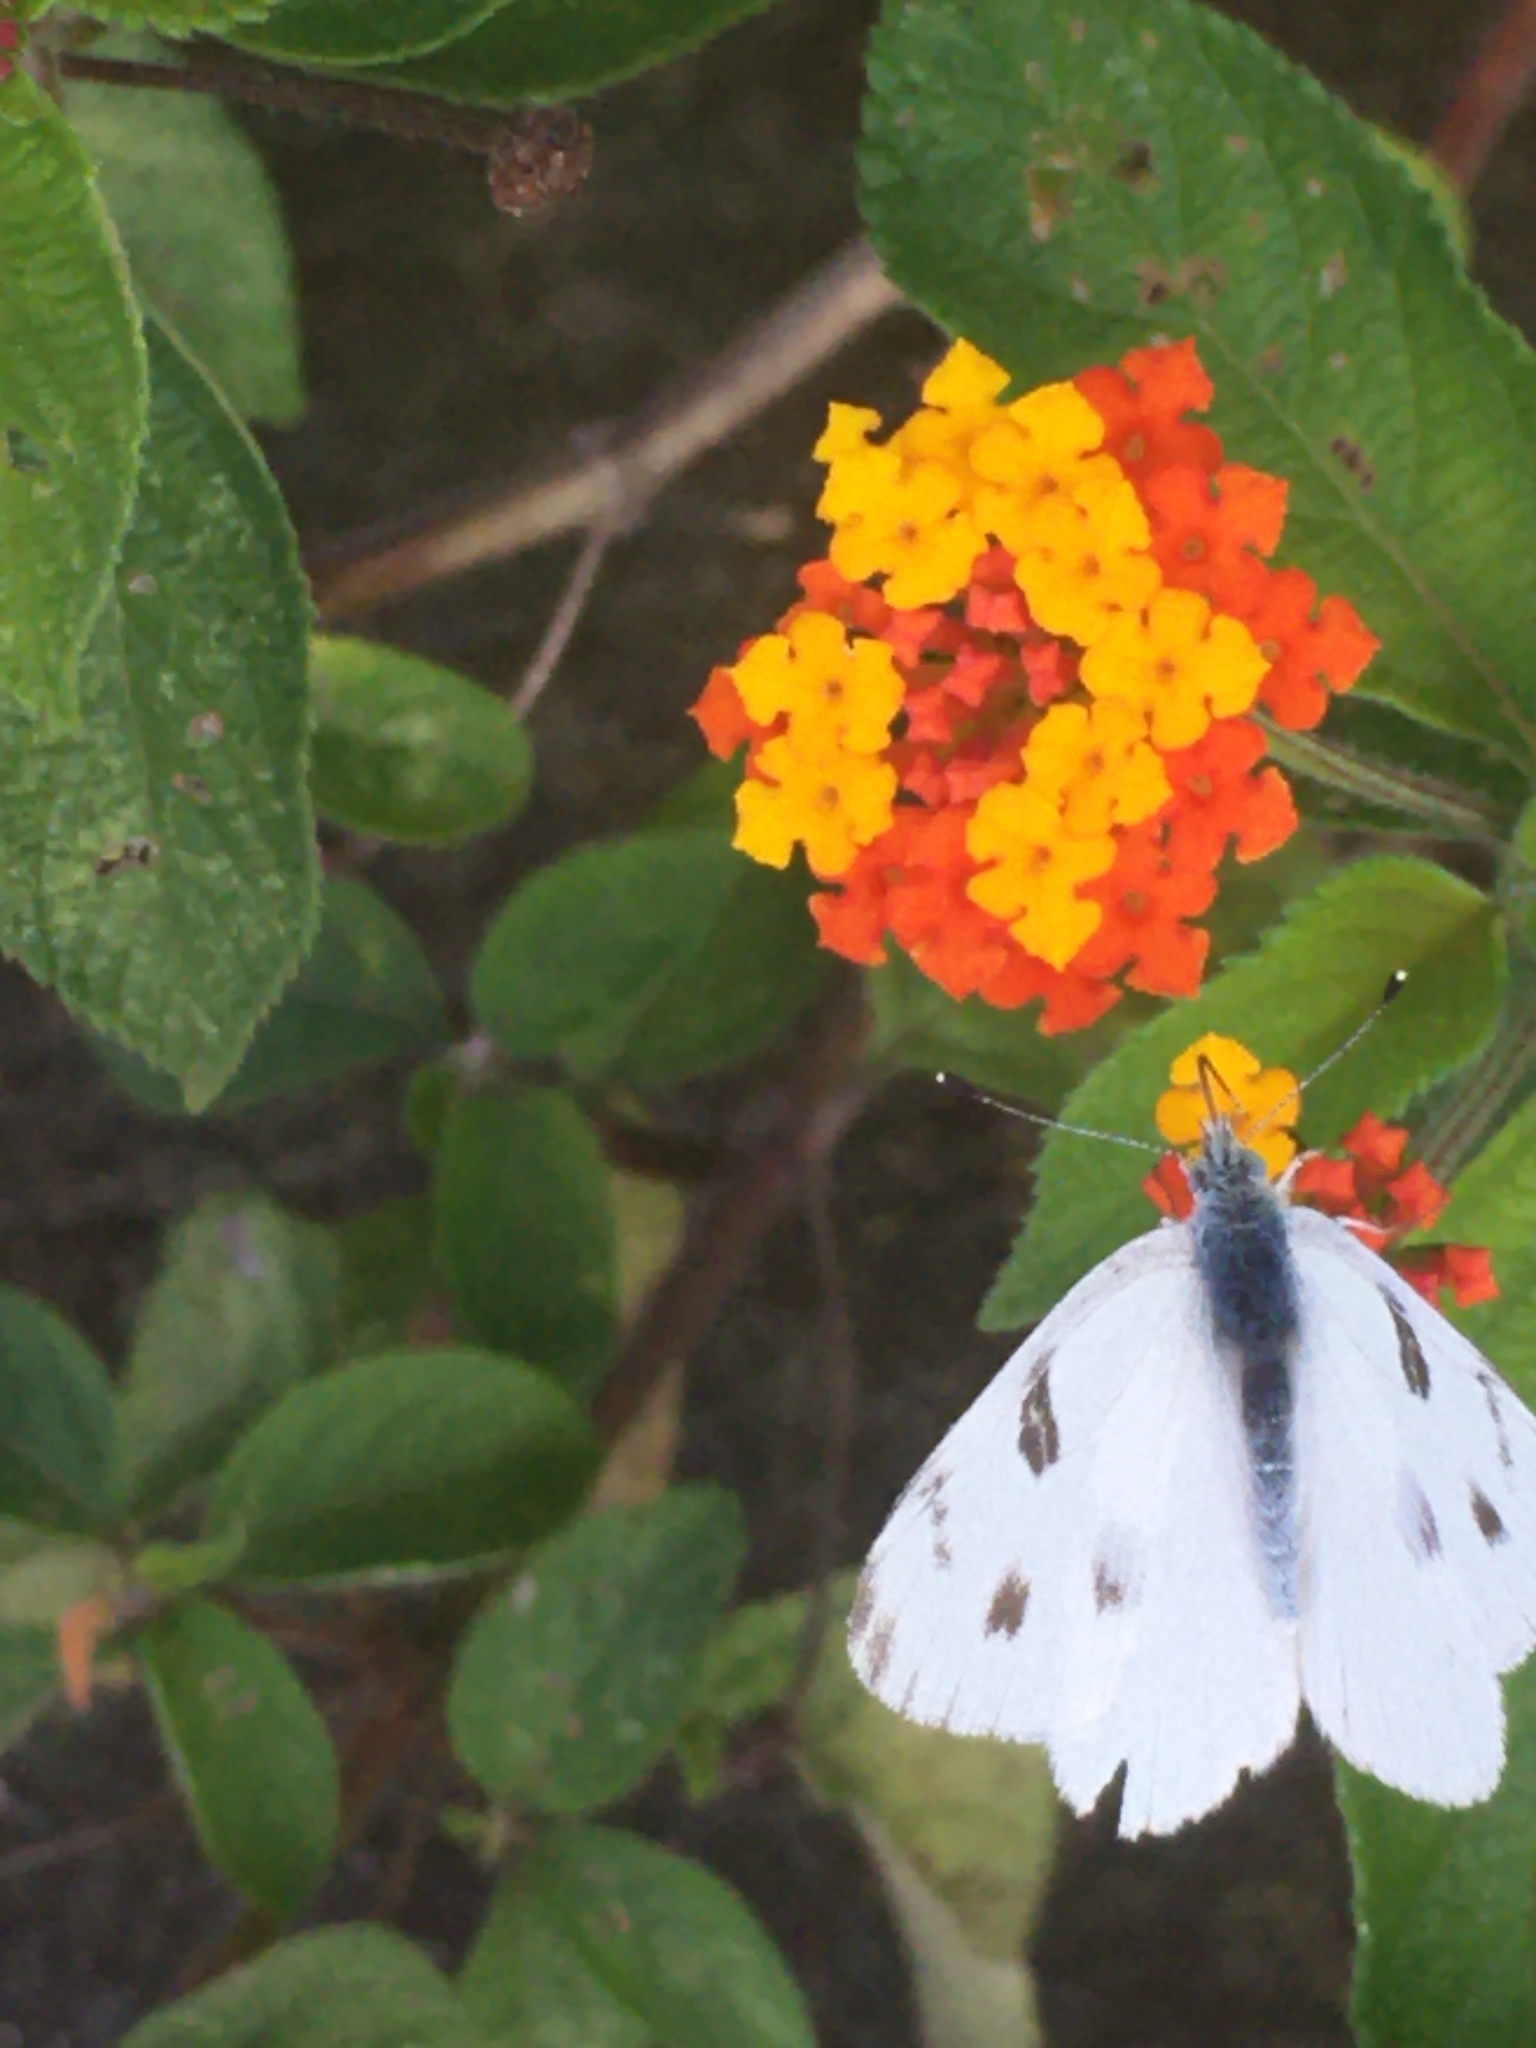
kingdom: Animalia
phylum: Arthropoda
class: Insecta
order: Lepidoptera
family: Pieridae
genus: Pontia
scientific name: Pontia protodice
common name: Checkered white
